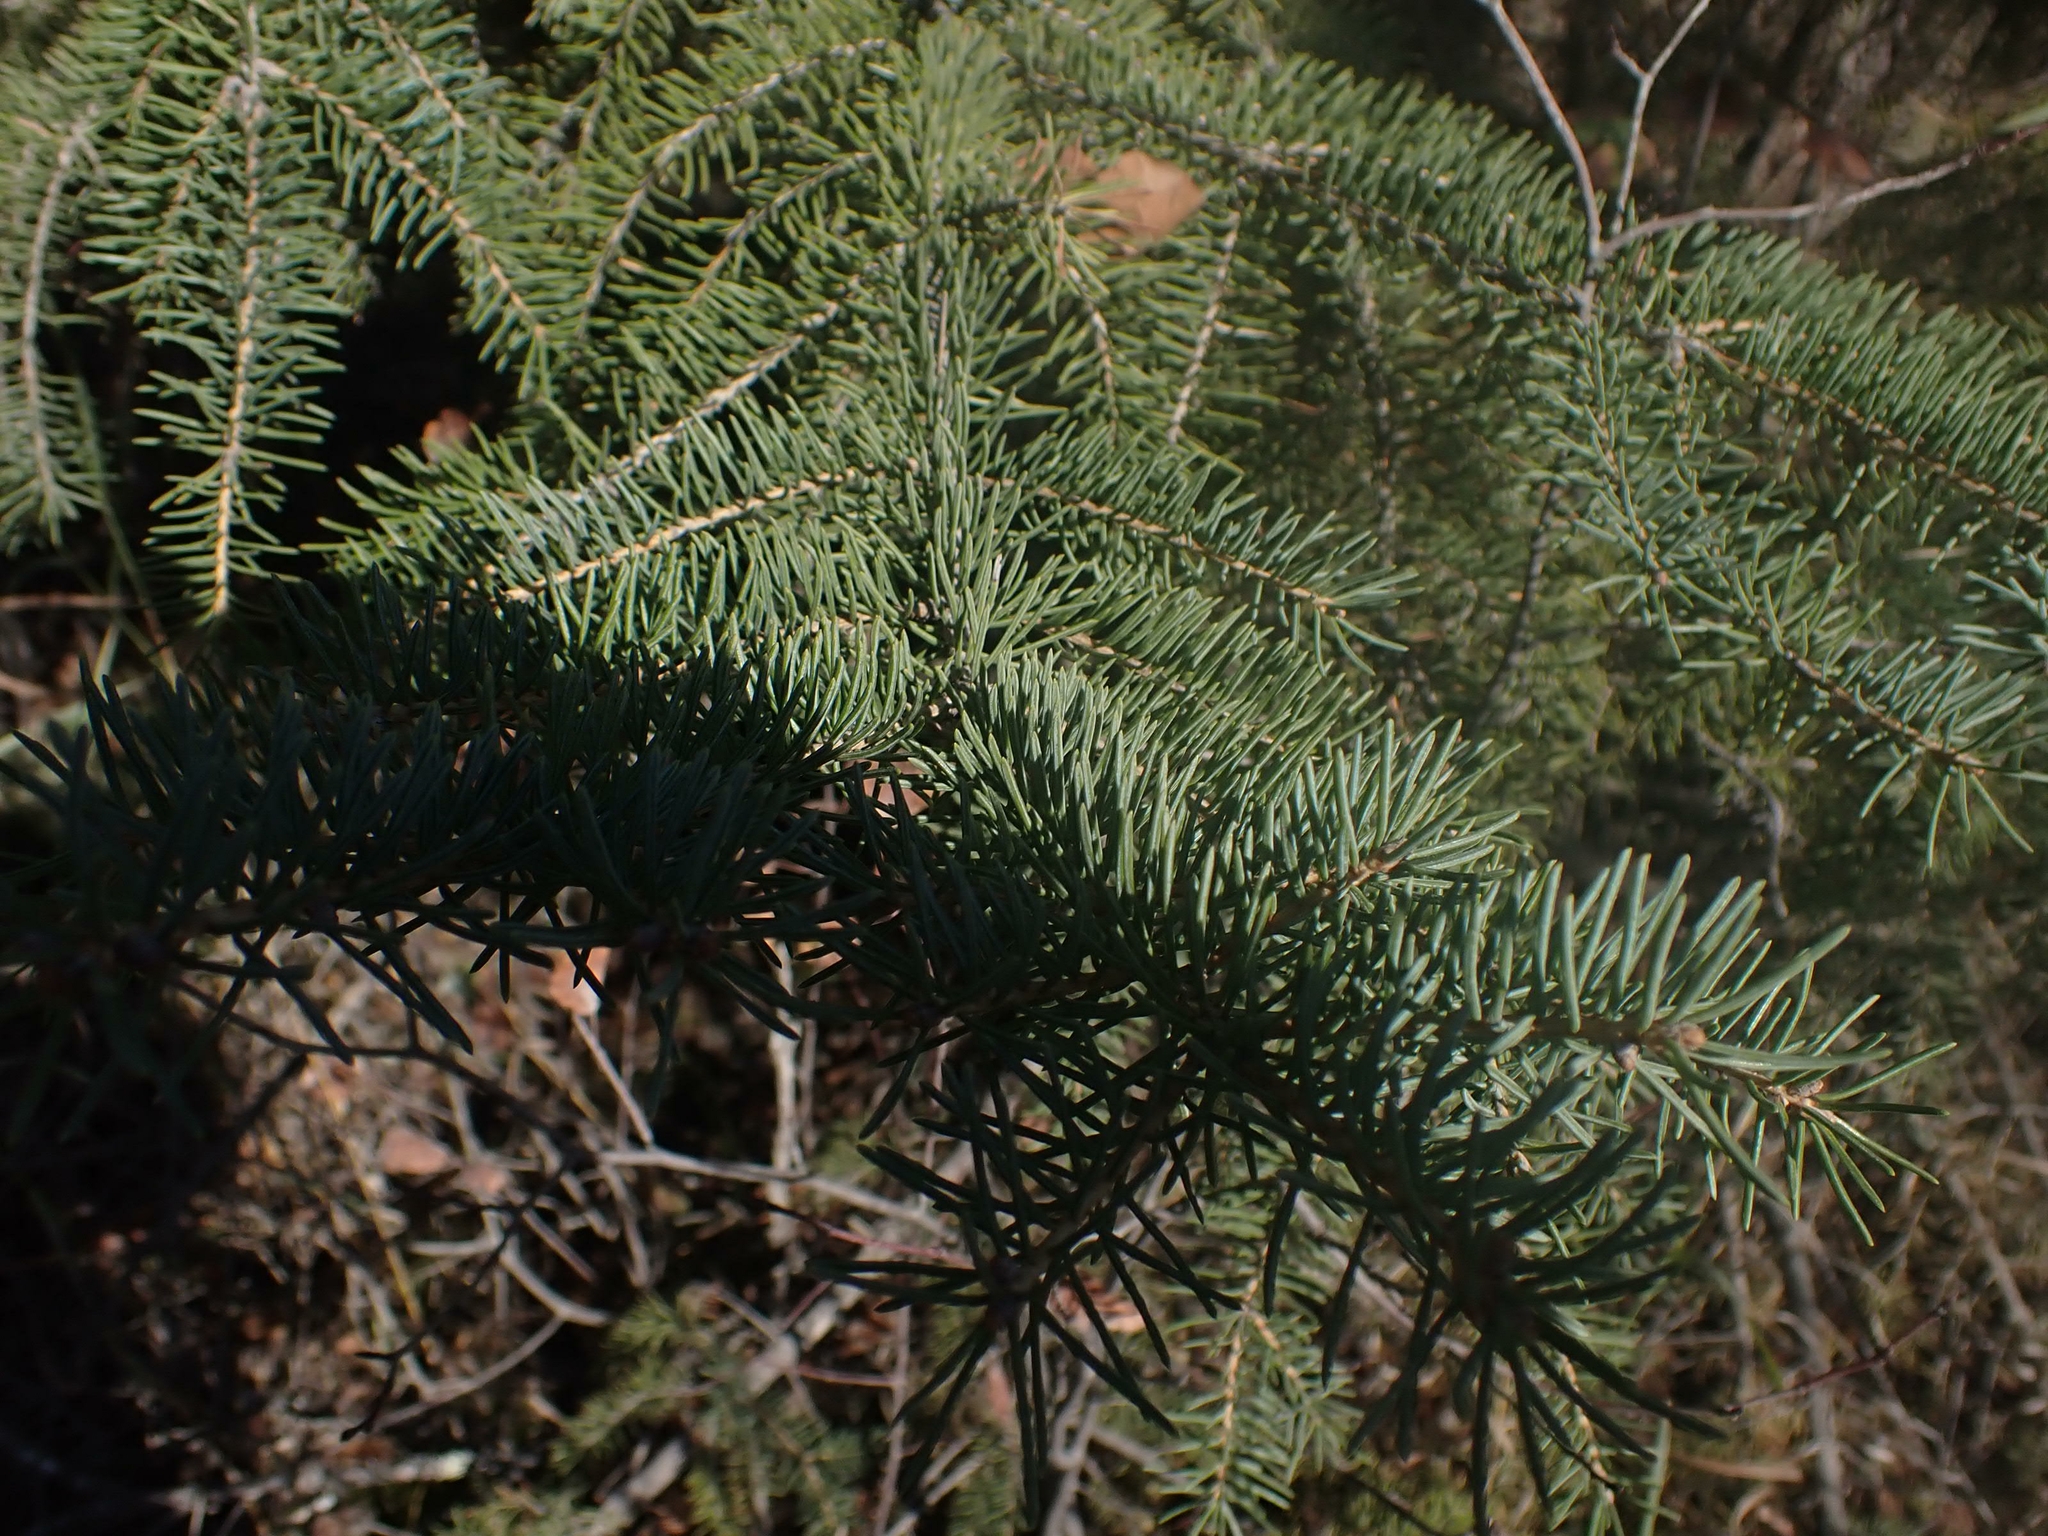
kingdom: Plantae
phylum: Tracheophyta
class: Pinopsida
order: Pinales
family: Pinaceae
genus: Picea
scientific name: Picea glauca
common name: White spruce
